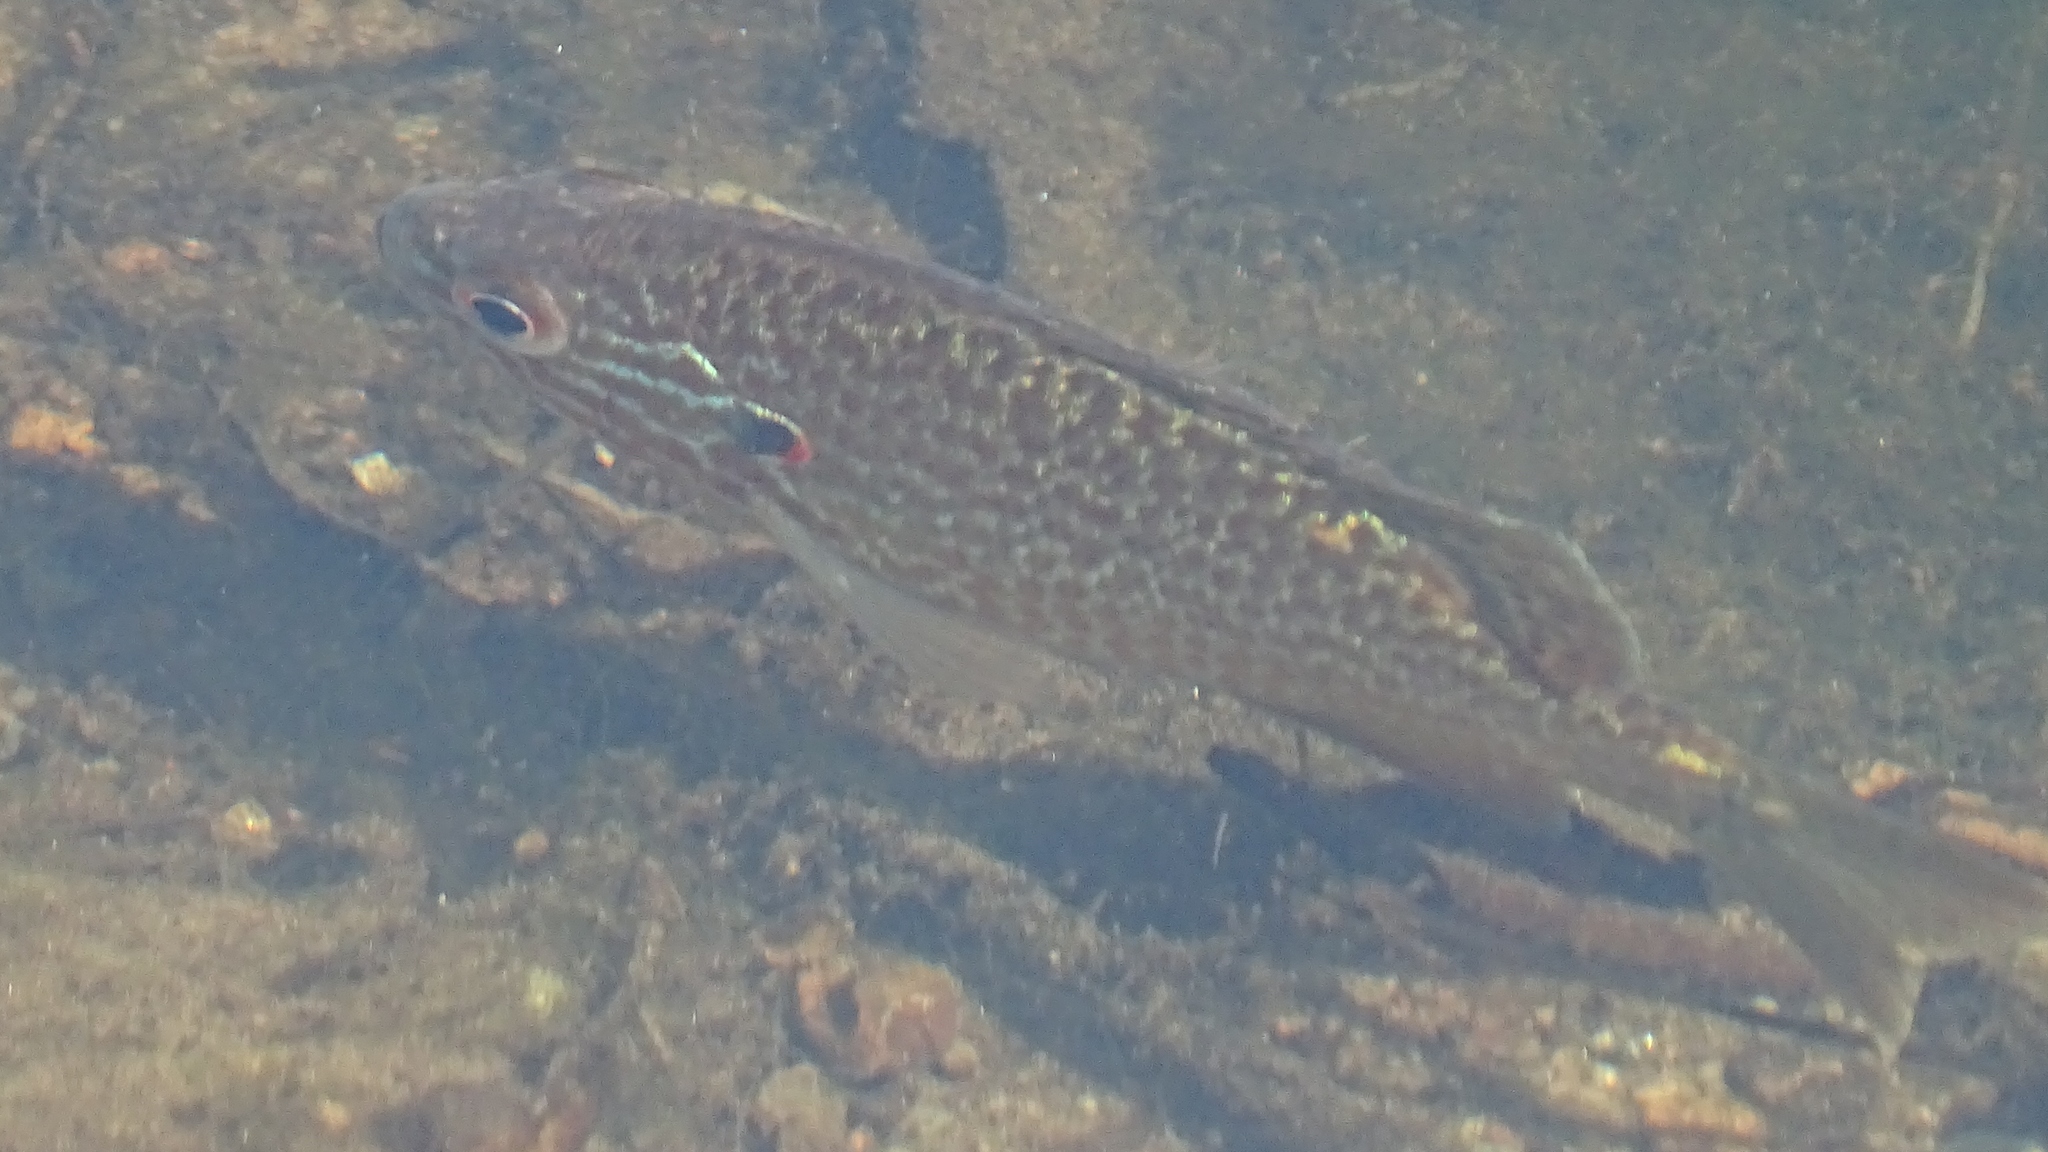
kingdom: Animalia
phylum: Chordata
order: Perciformes
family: Centrarchidae
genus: Lepomis
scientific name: Lepomis gibbosus
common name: Pumpkinseed
